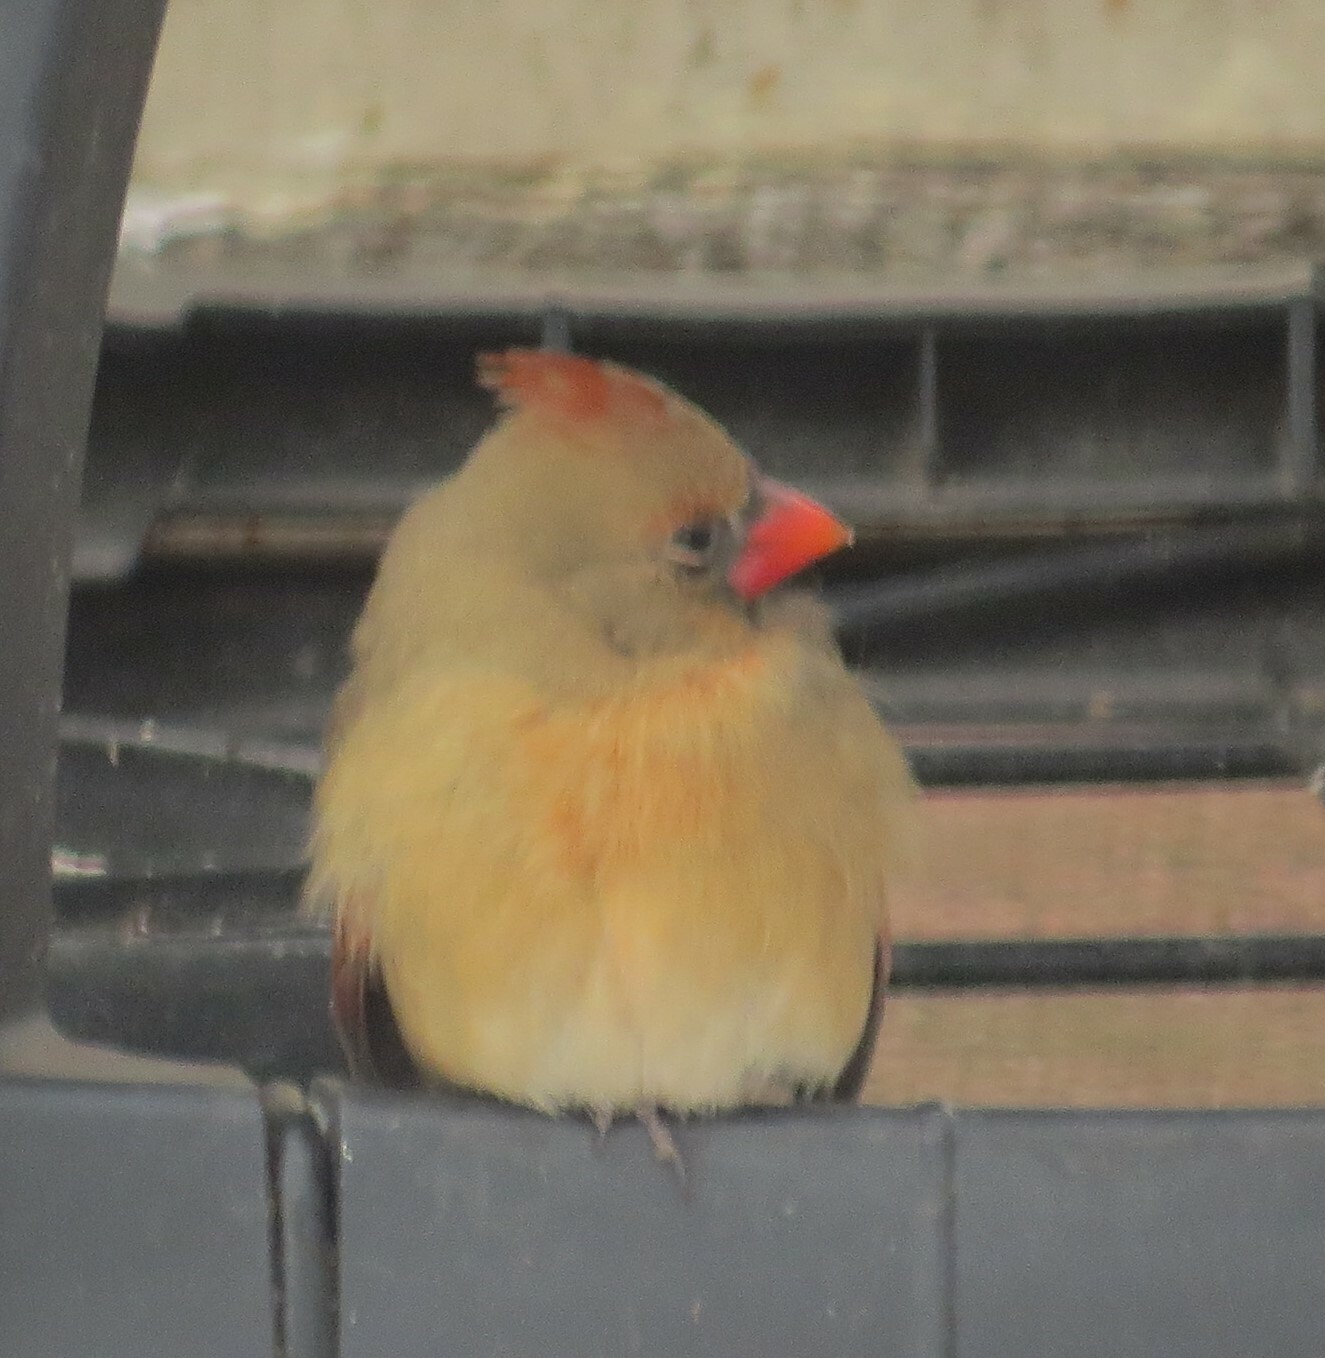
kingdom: Animalia
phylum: Chordata
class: Aves
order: Passeriformes
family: Cardinalidae
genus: Cardinalis
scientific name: Cardinalis cardinalis
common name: Northern cardinal
